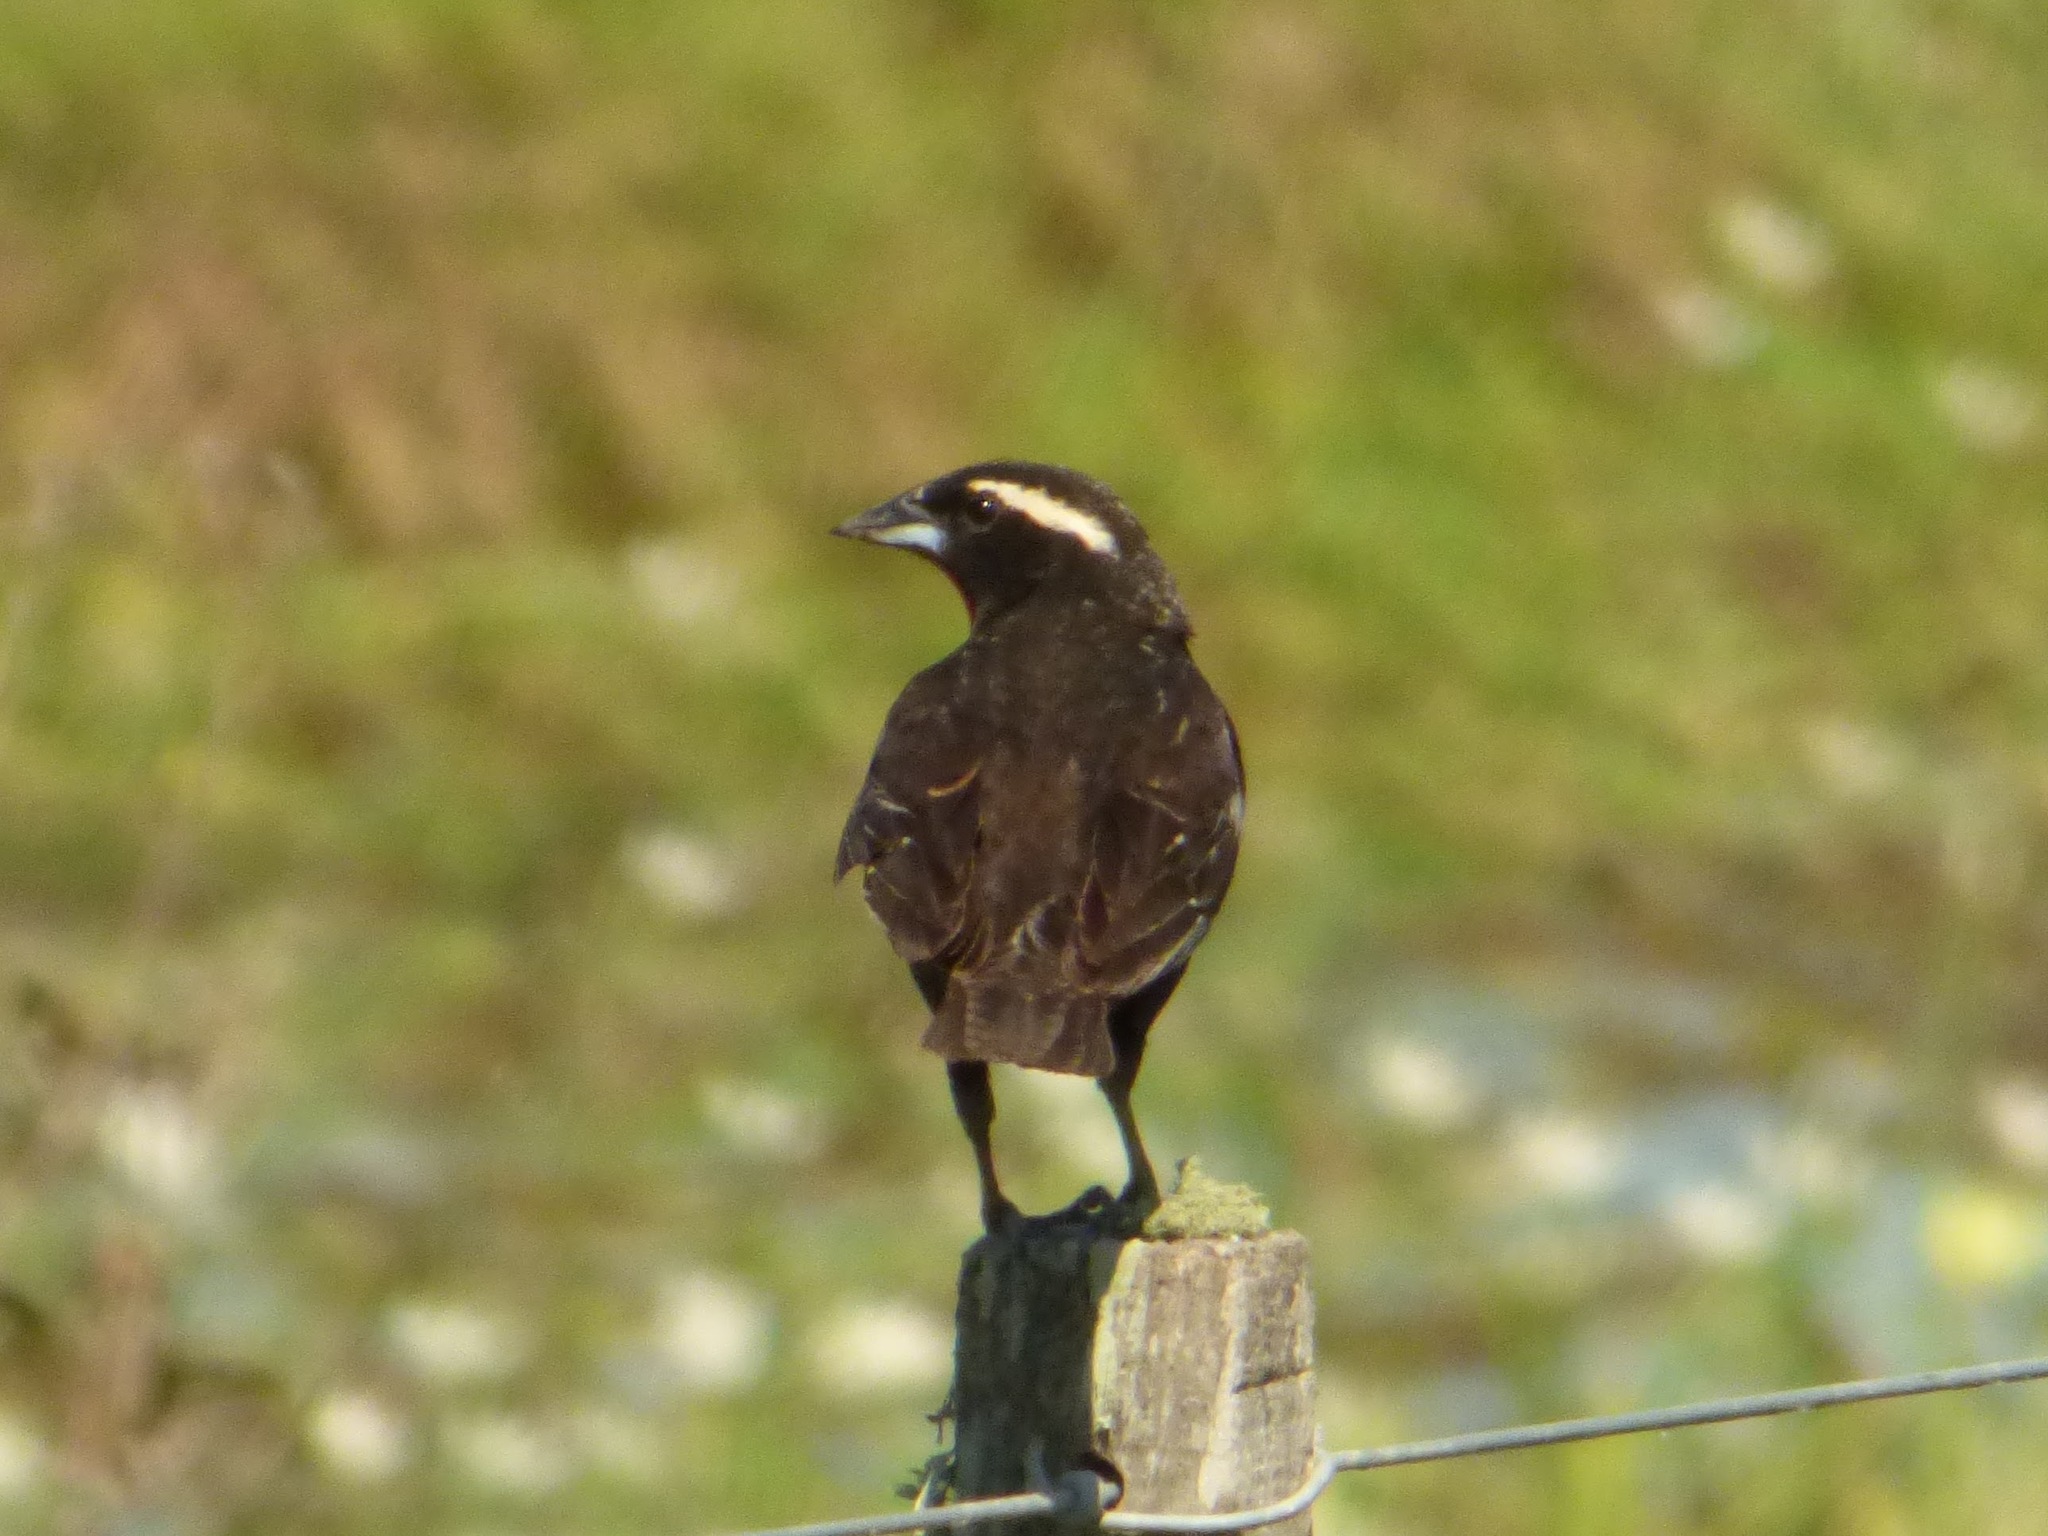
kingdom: Animalia
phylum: Chordata
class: Aves
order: Passeriformes
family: Icteridae
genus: Sturnella
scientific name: Sturnella superciliaris
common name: White-browed blackbird
